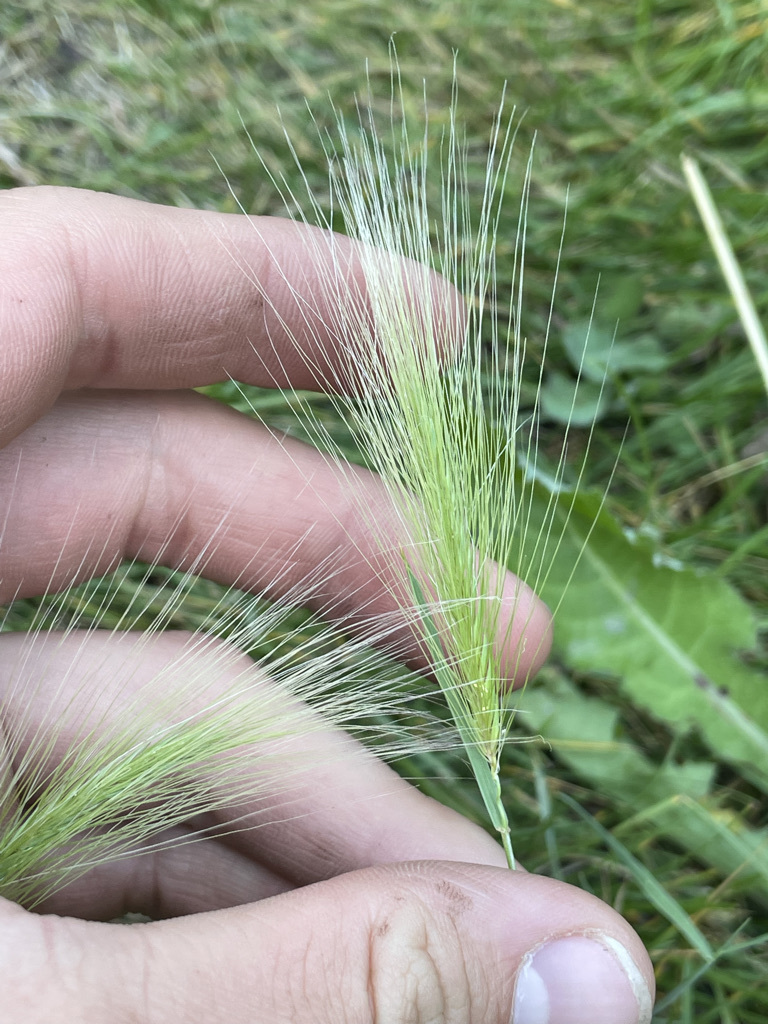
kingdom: Plantae
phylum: Tracheophyta
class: Liliopsida
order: Poales
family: Poaceae
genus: Hordeum
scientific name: Hordeum jubatum
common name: Foxtail barley
